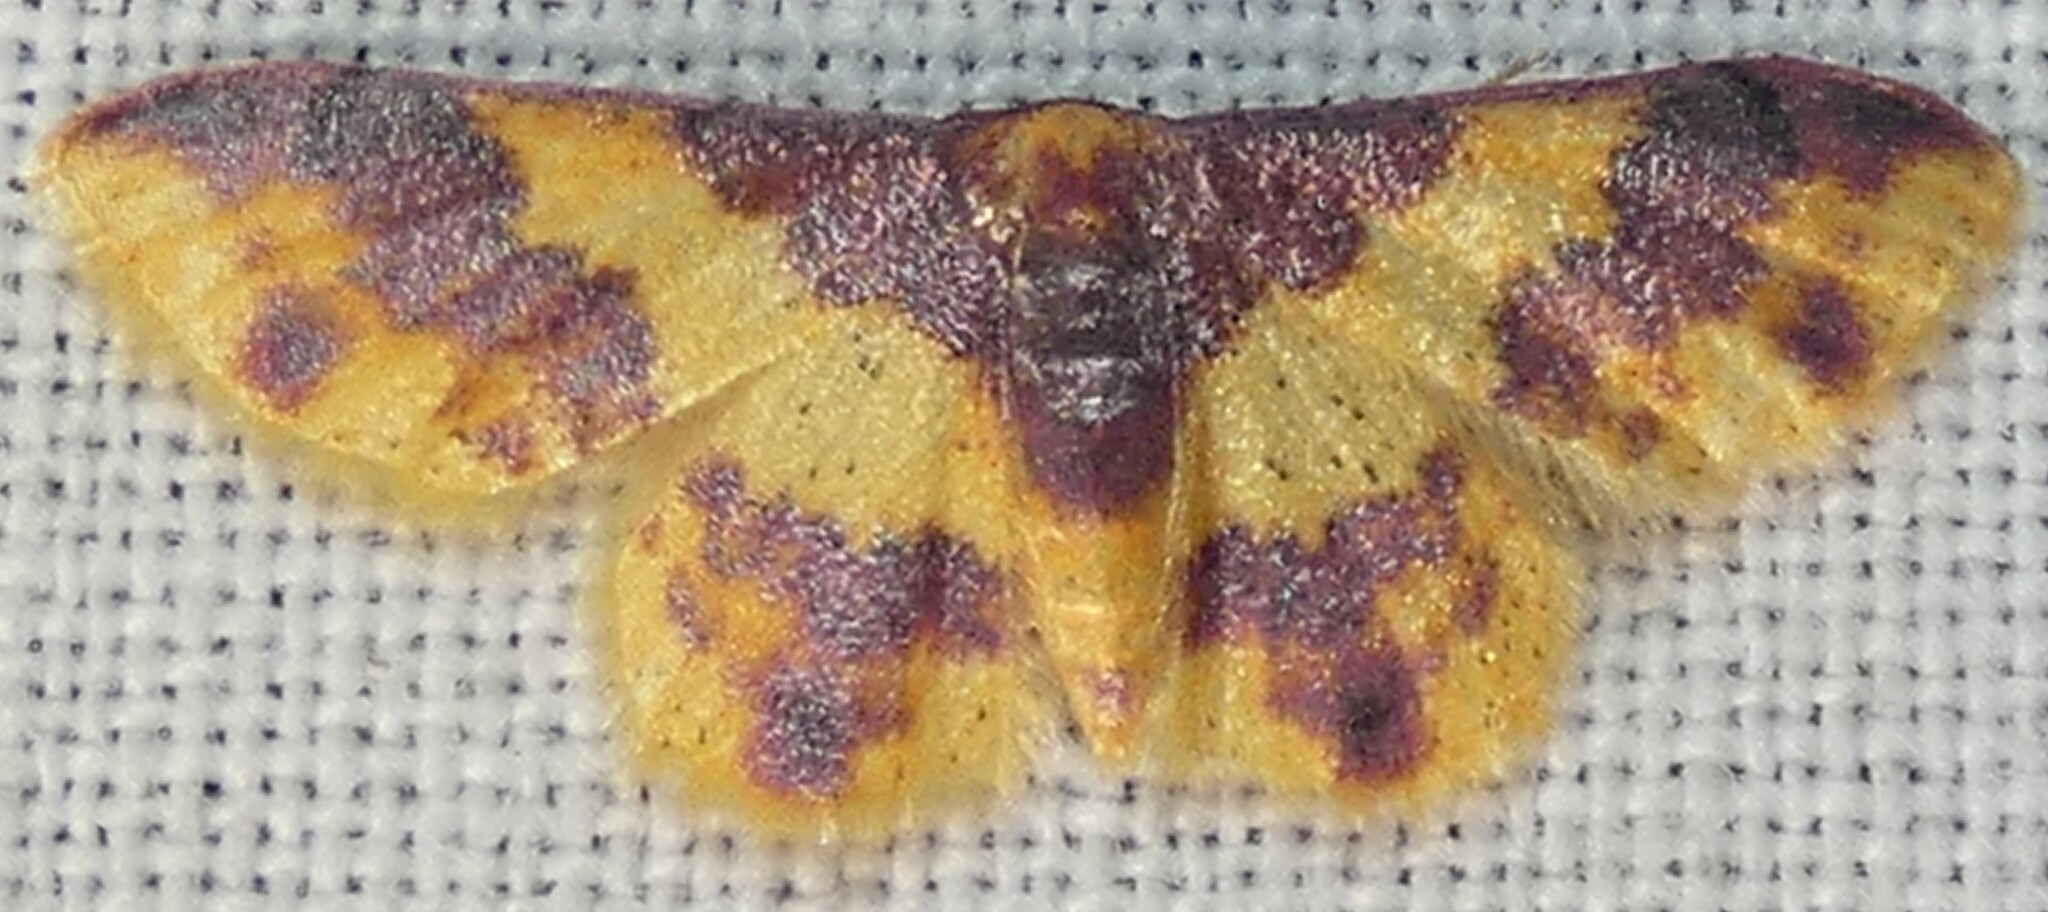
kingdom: Animalia
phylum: Arthropoda
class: Insecta
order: Lepidoptera
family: Geometridae
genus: Lophosis
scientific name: Lophosis labeculata
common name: Stained lophosis moth
